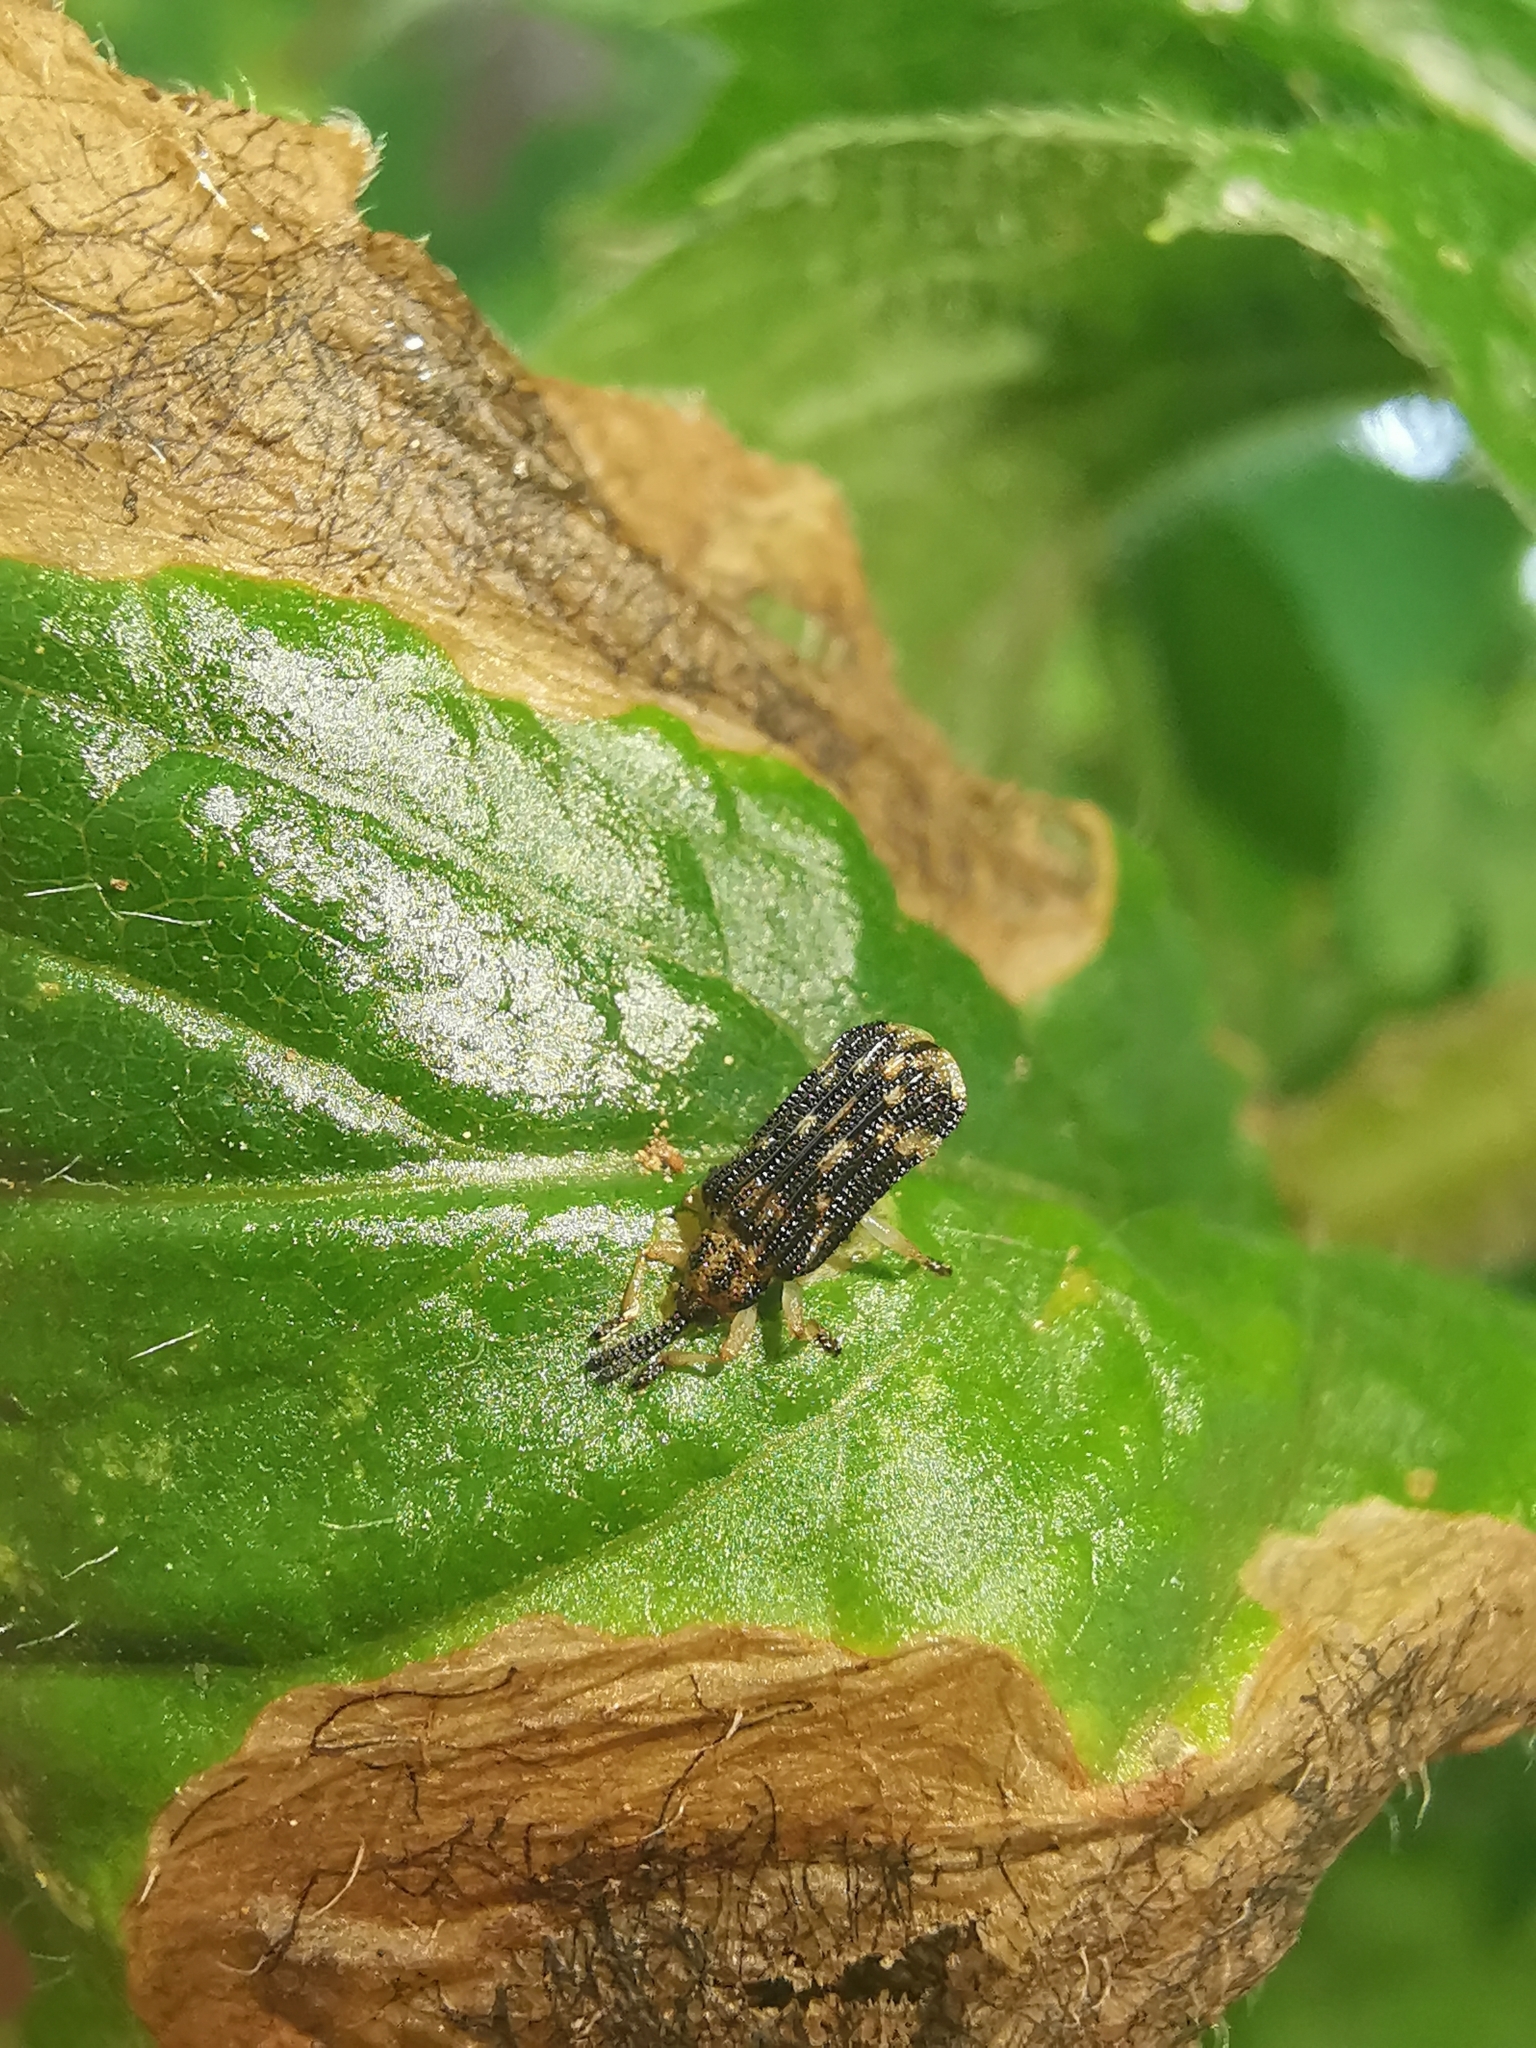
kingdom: Animalia
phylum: Arthropoda
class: Insecta
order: Coleoptera
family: Chrysomelidae
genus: Sumitrosis
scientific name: Sumitrosis inaequalis
